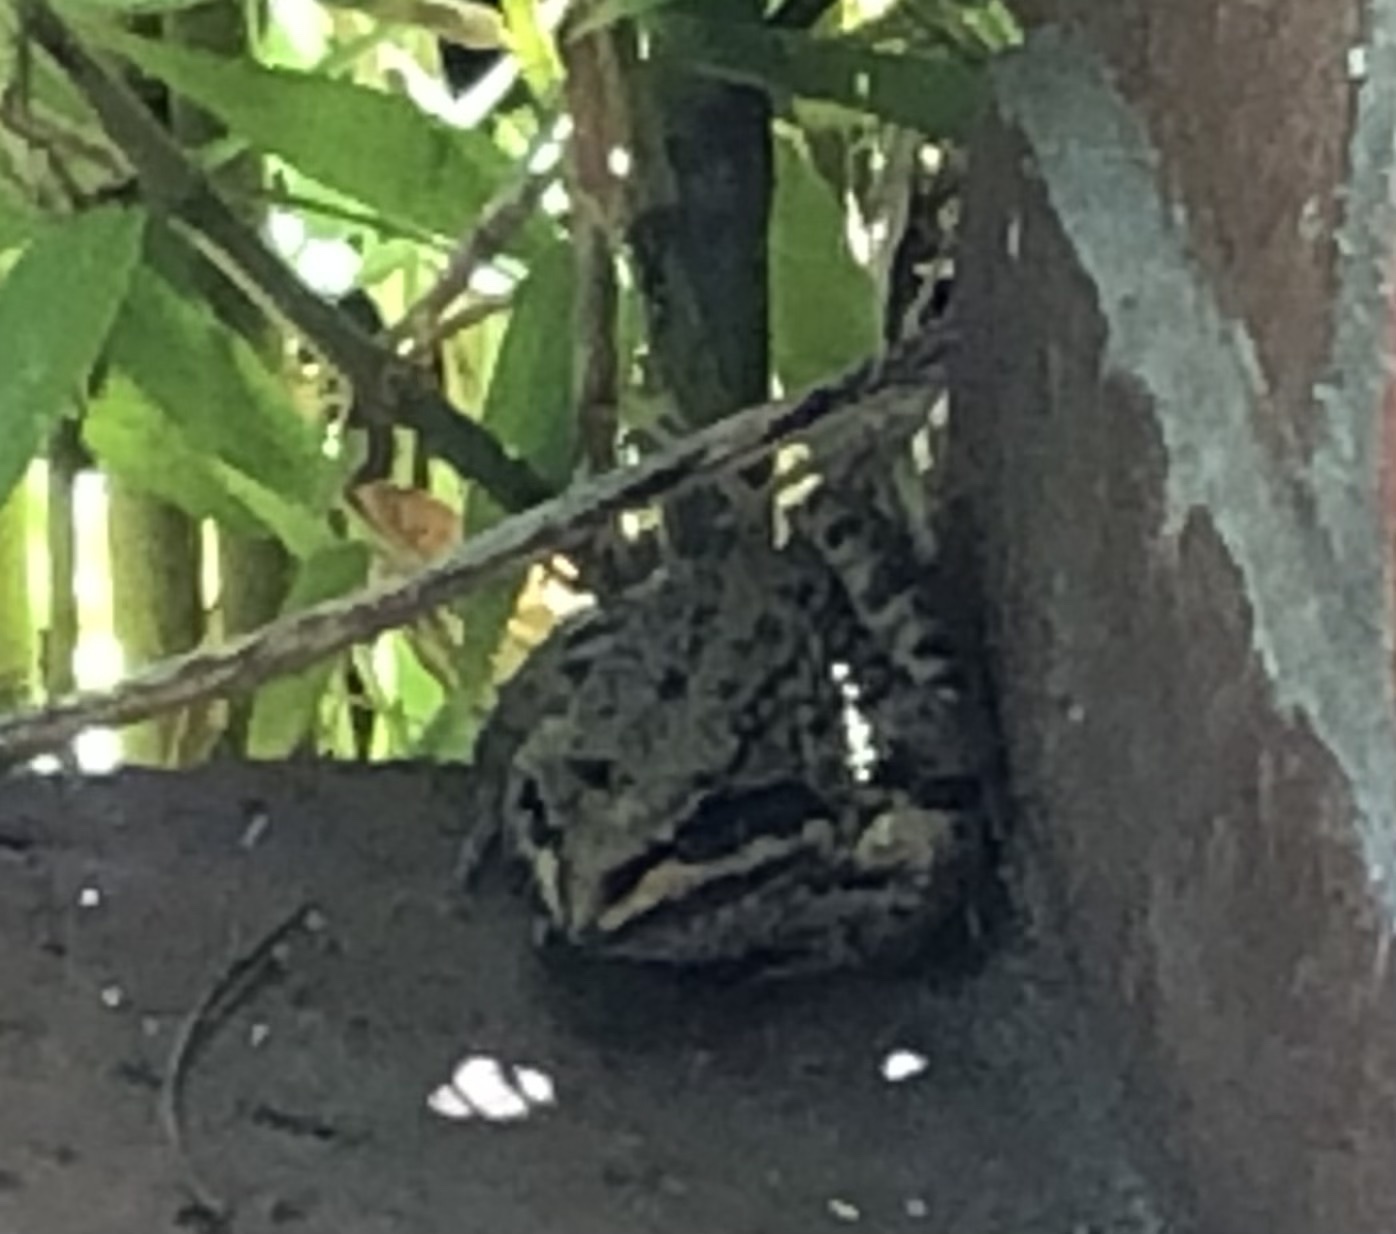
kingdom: Animalia
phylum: Chordata
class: Amphibia
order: Anura
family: Pyxicephalidae
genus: Amietia
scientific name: Amietia fuscigula
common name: Cape rana
